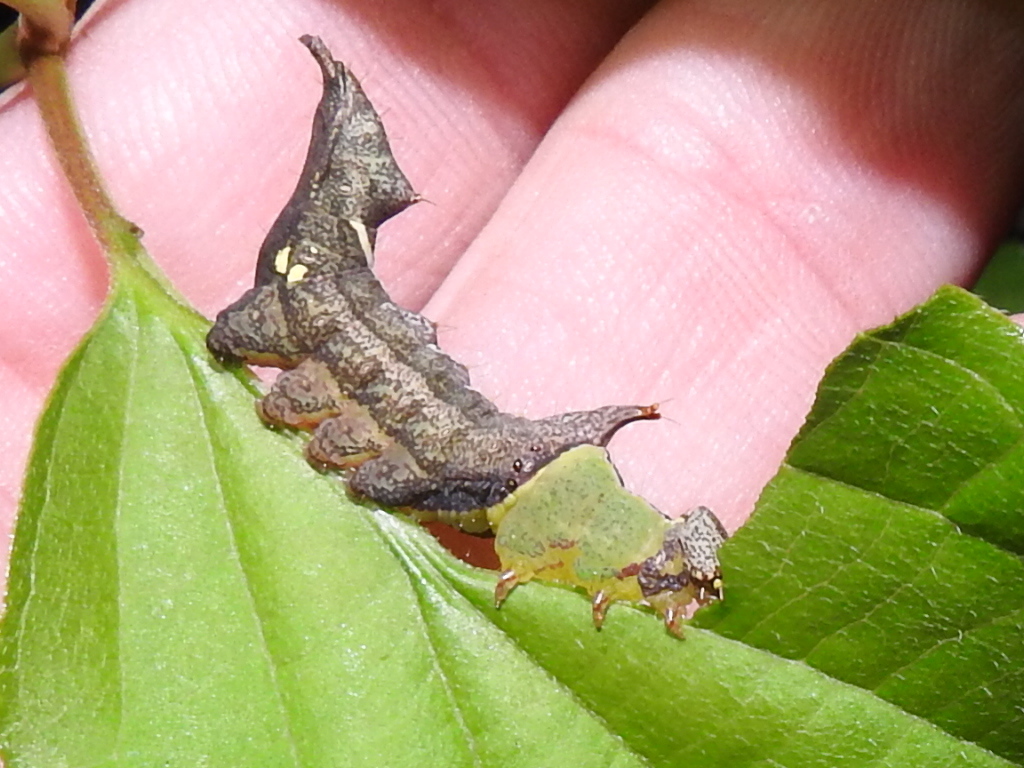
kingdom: Animalia
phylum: Arthropoda
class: Insecta
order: Lepidoptera
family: Notodontidae
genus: Schizura
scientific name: Schizura
